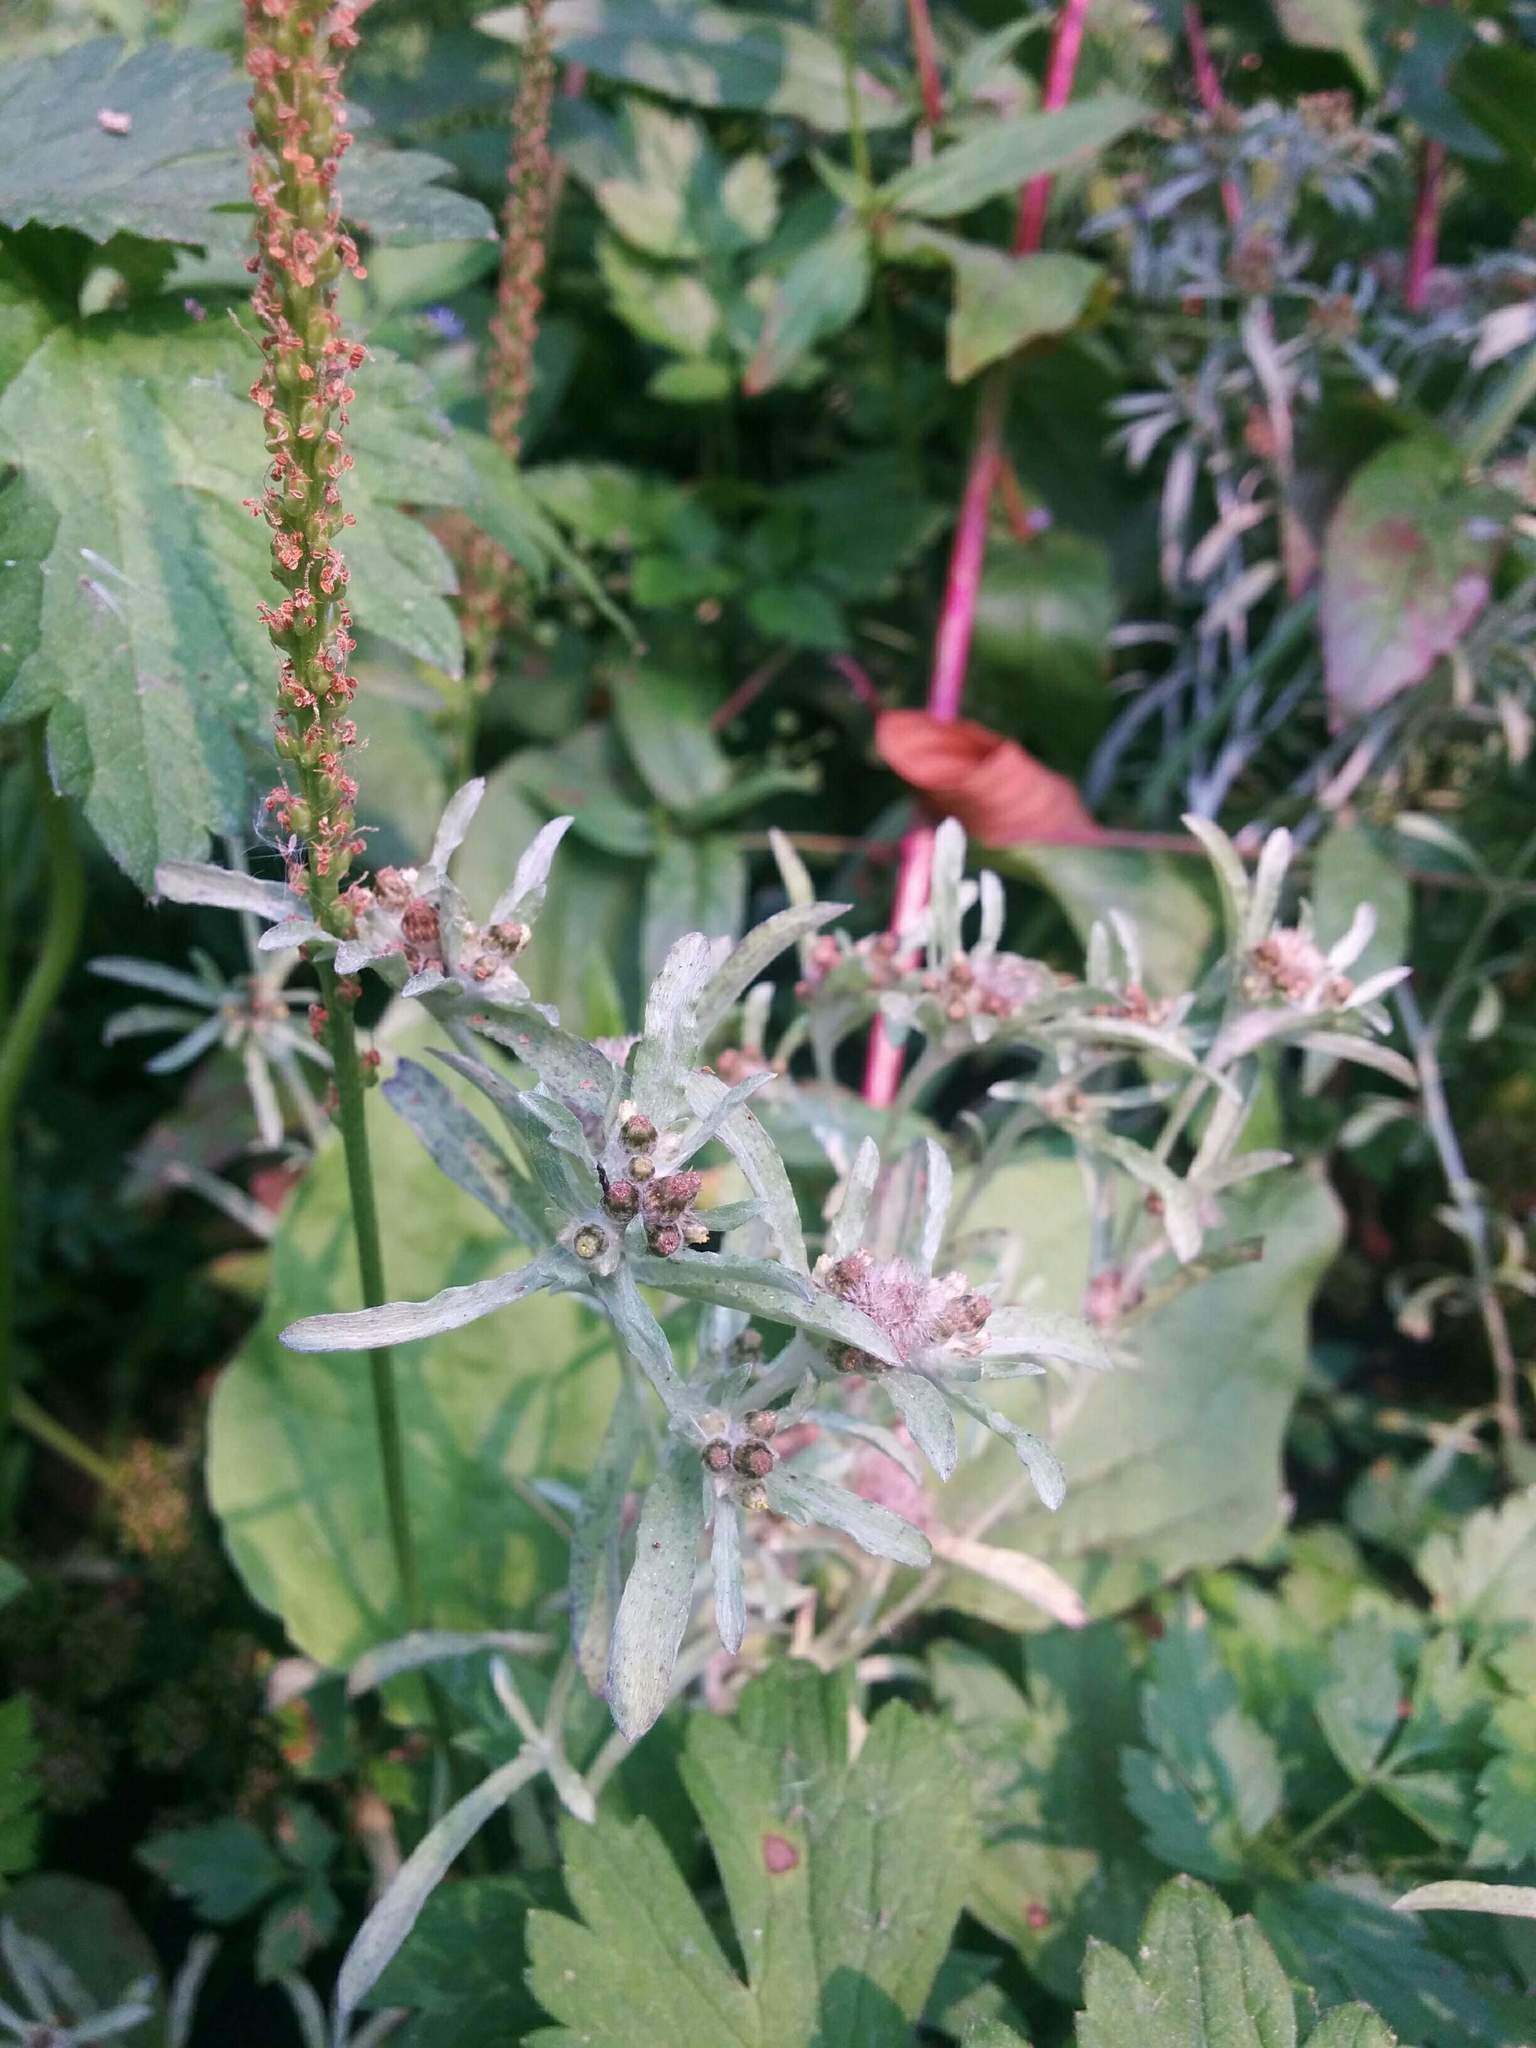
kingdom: Plantae
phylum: Tracheophyta
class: Magnoliopsida
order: Asterales
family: Asteraceae
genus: Gnaphalium
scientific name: Gnaphalium uliginosum
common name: Marsh cudweed
